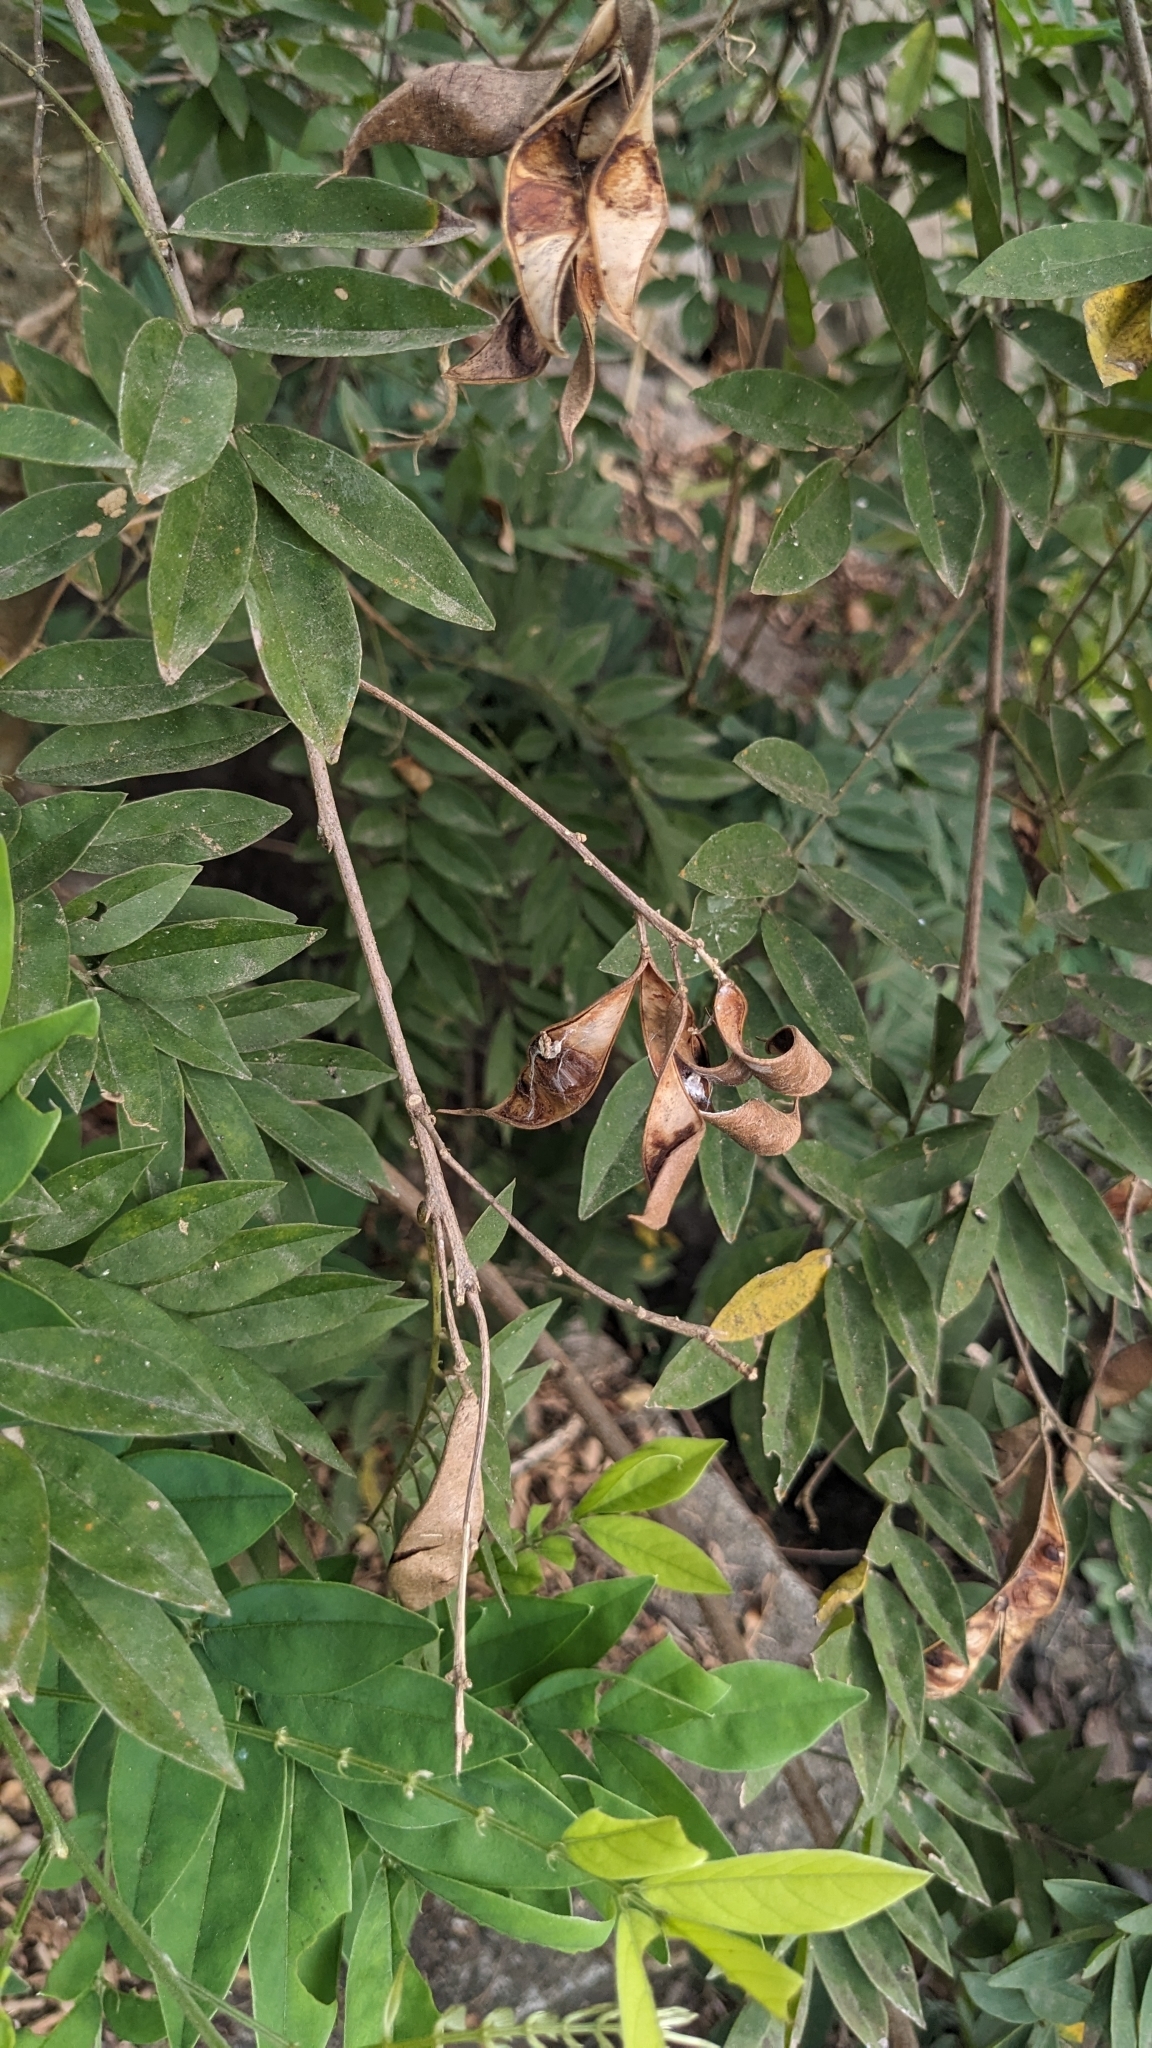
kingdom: Plantae
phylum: Tracheophyta
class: Magnoliopsida
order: Fabales
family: Fabaceae
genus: Millettia
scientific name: Millettia pulchra
